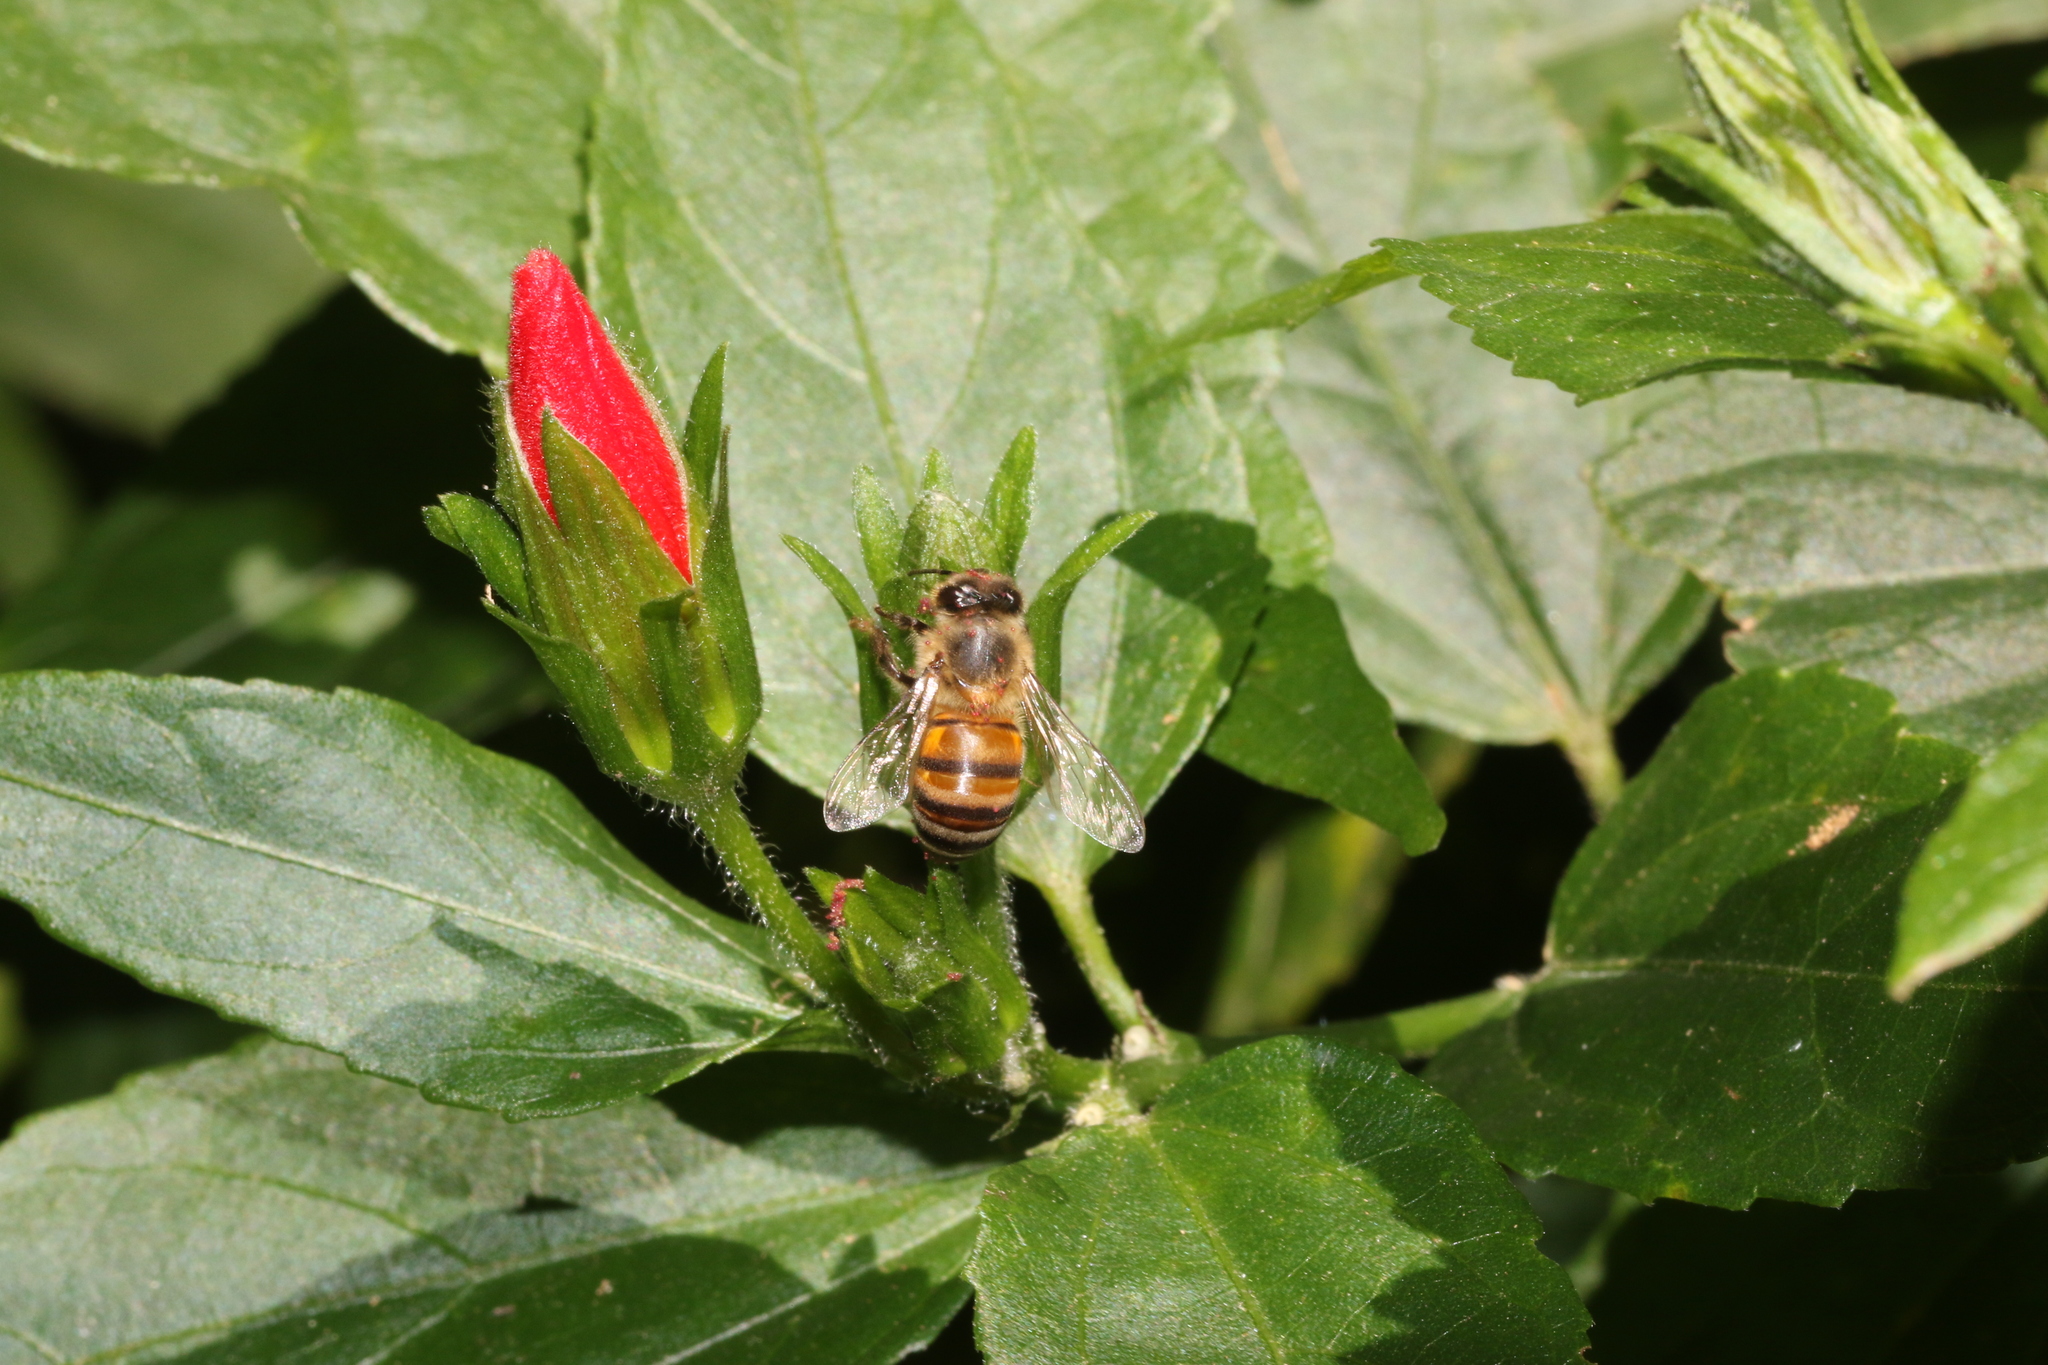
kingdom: Animalia
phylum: Arthropoda
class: Insecta
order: Hymenoptera
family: Apidae
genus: Apis
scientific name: Apis mellifera
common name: Honey bee
